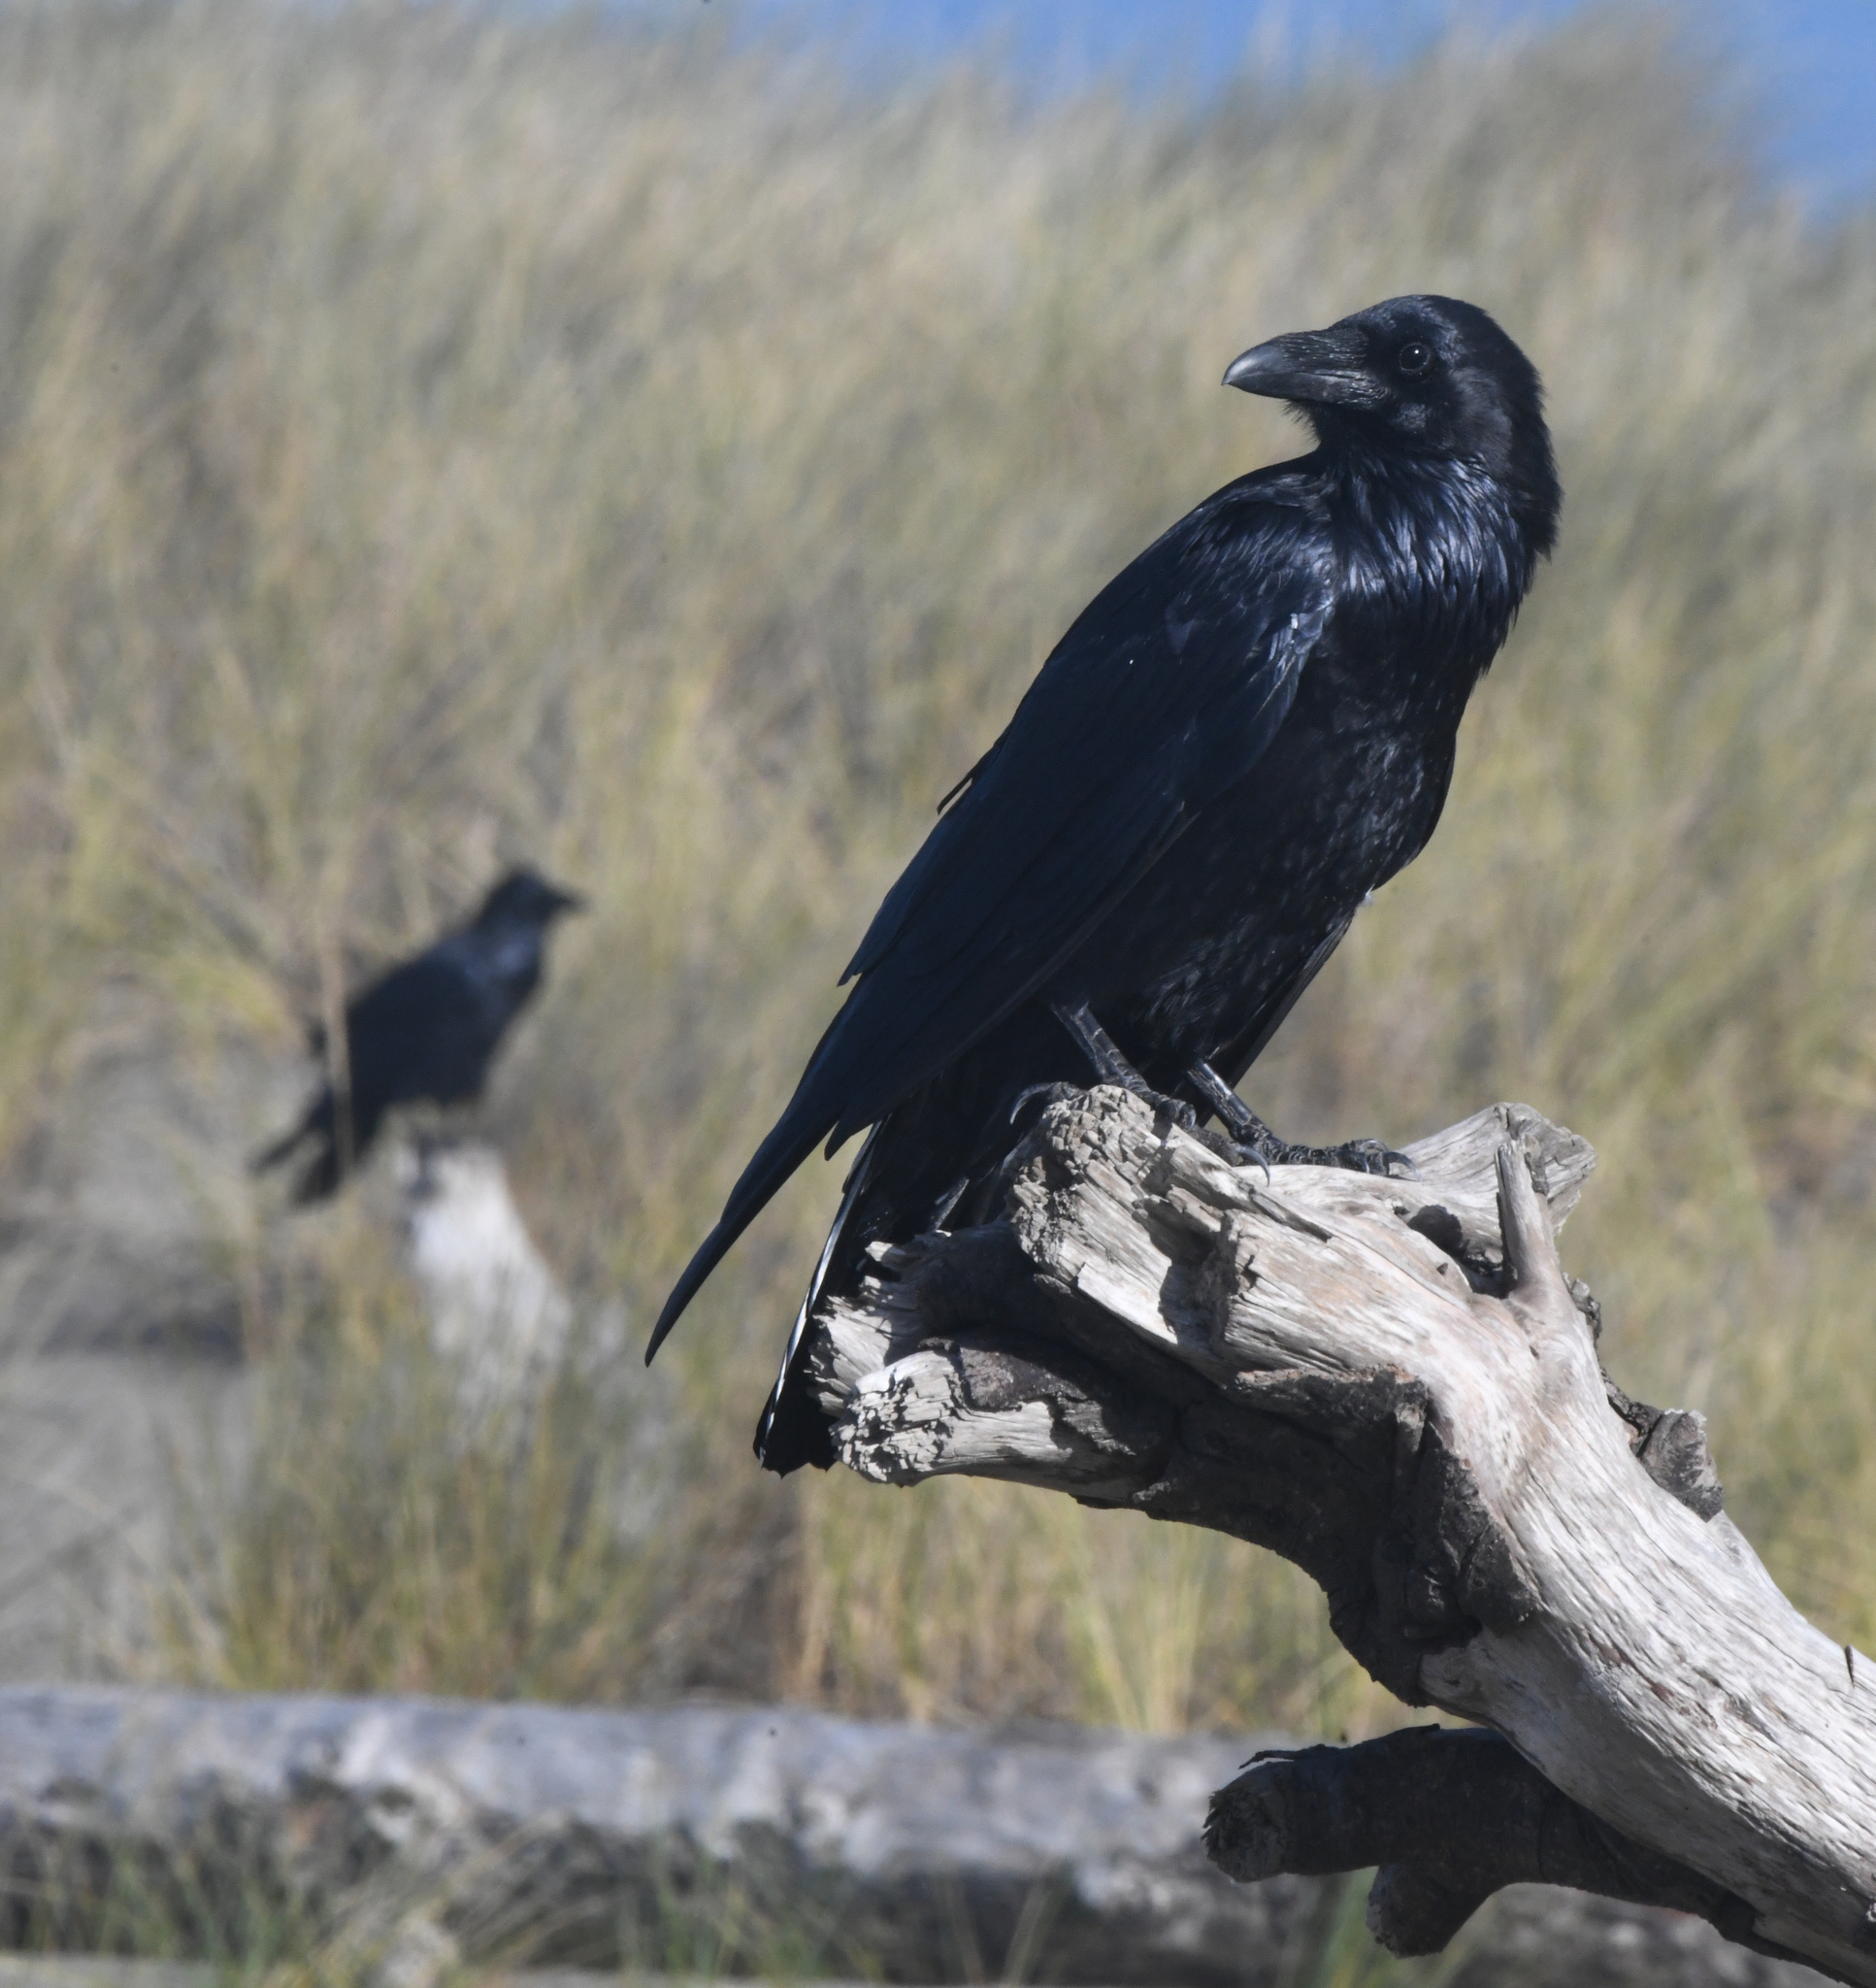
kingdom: Animalia
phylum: Chordata
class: Aves
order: Passeriformes
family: Corvidae
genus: Corvus
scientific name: Corvus corax
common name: Common raven
